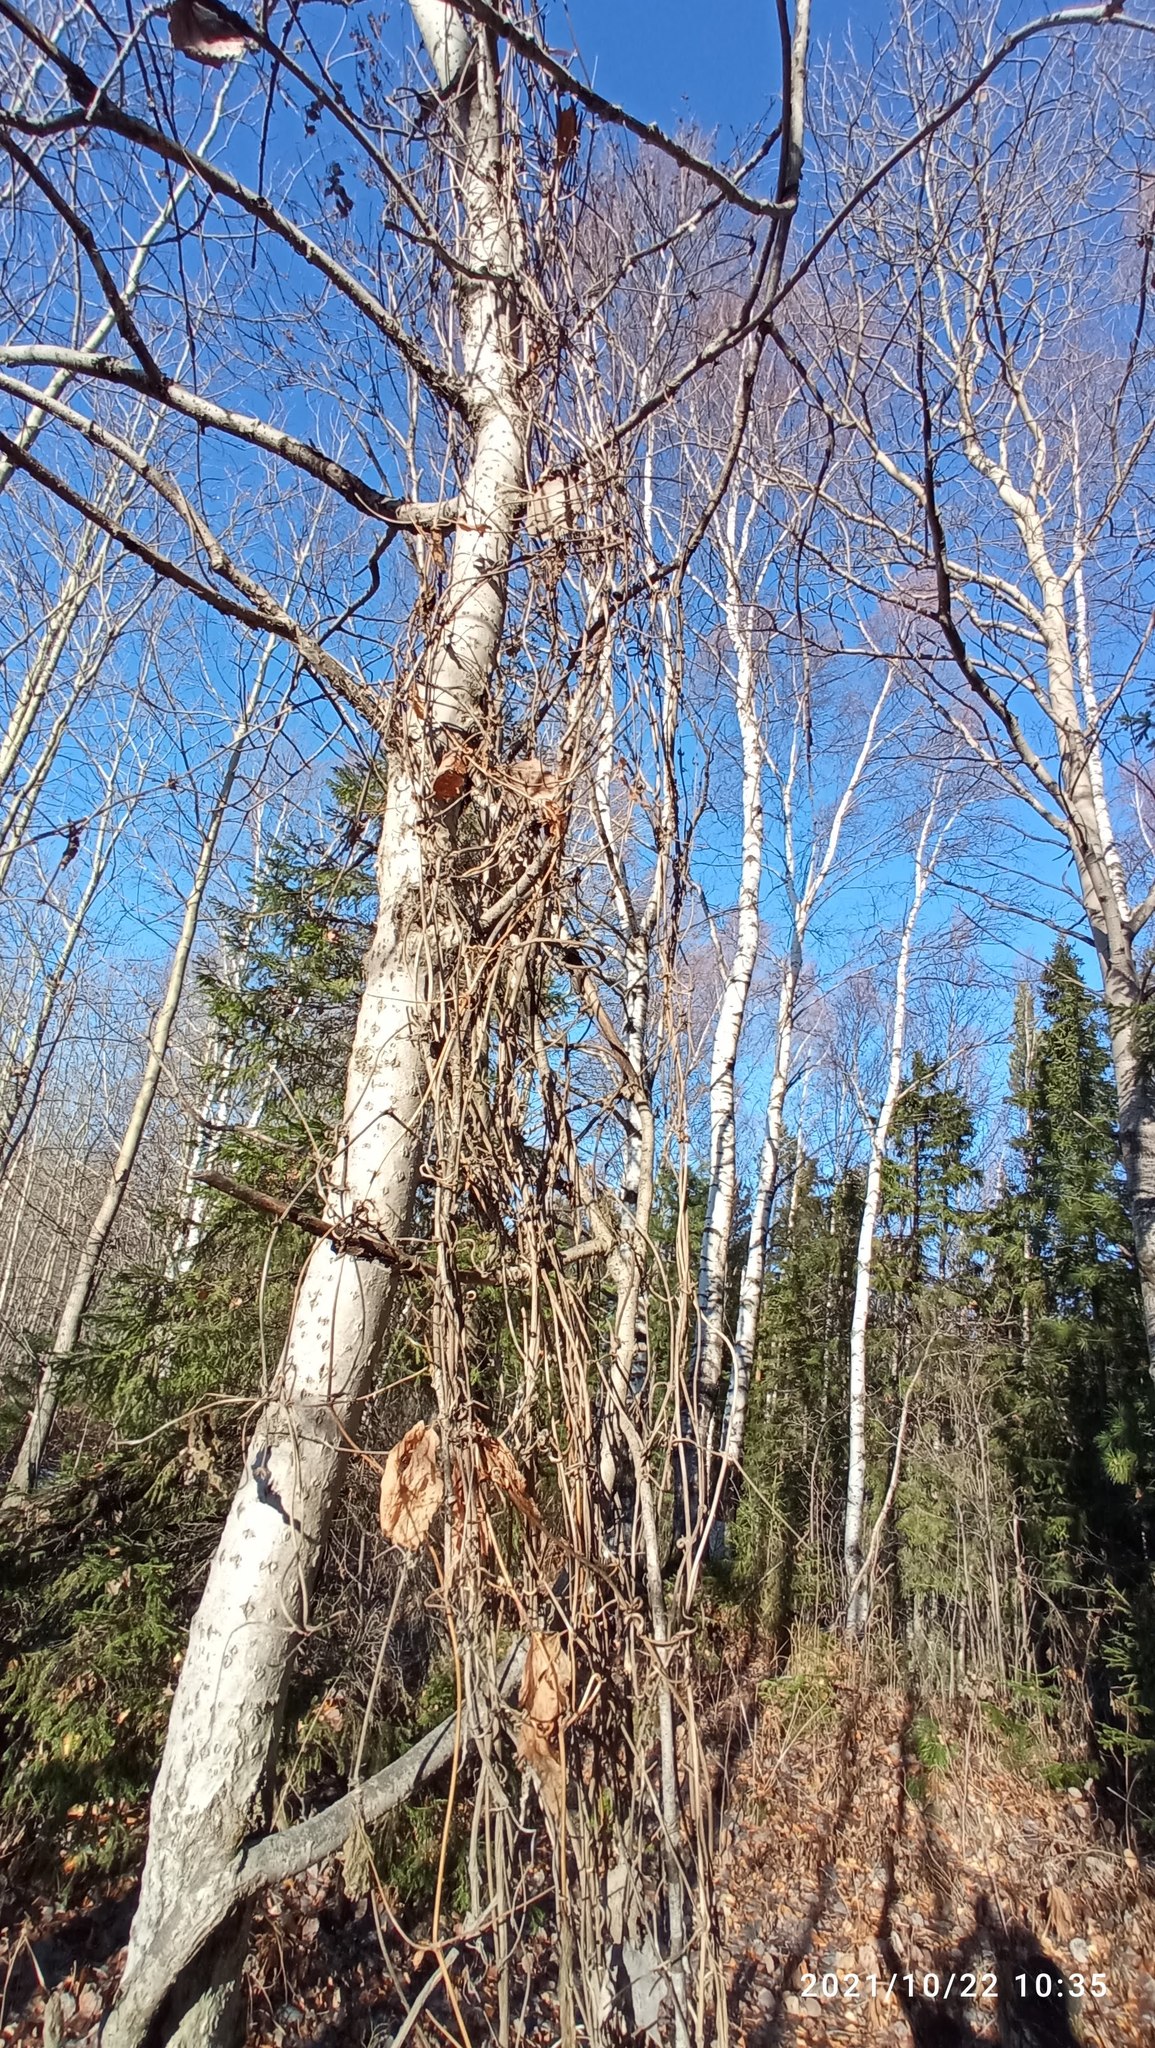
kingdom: Plantae
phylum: Tracheophyta
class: Magnoliopsida
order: Ranunculales
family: Ranunculaceae
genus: Clematis
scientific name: Clematis sibirica
